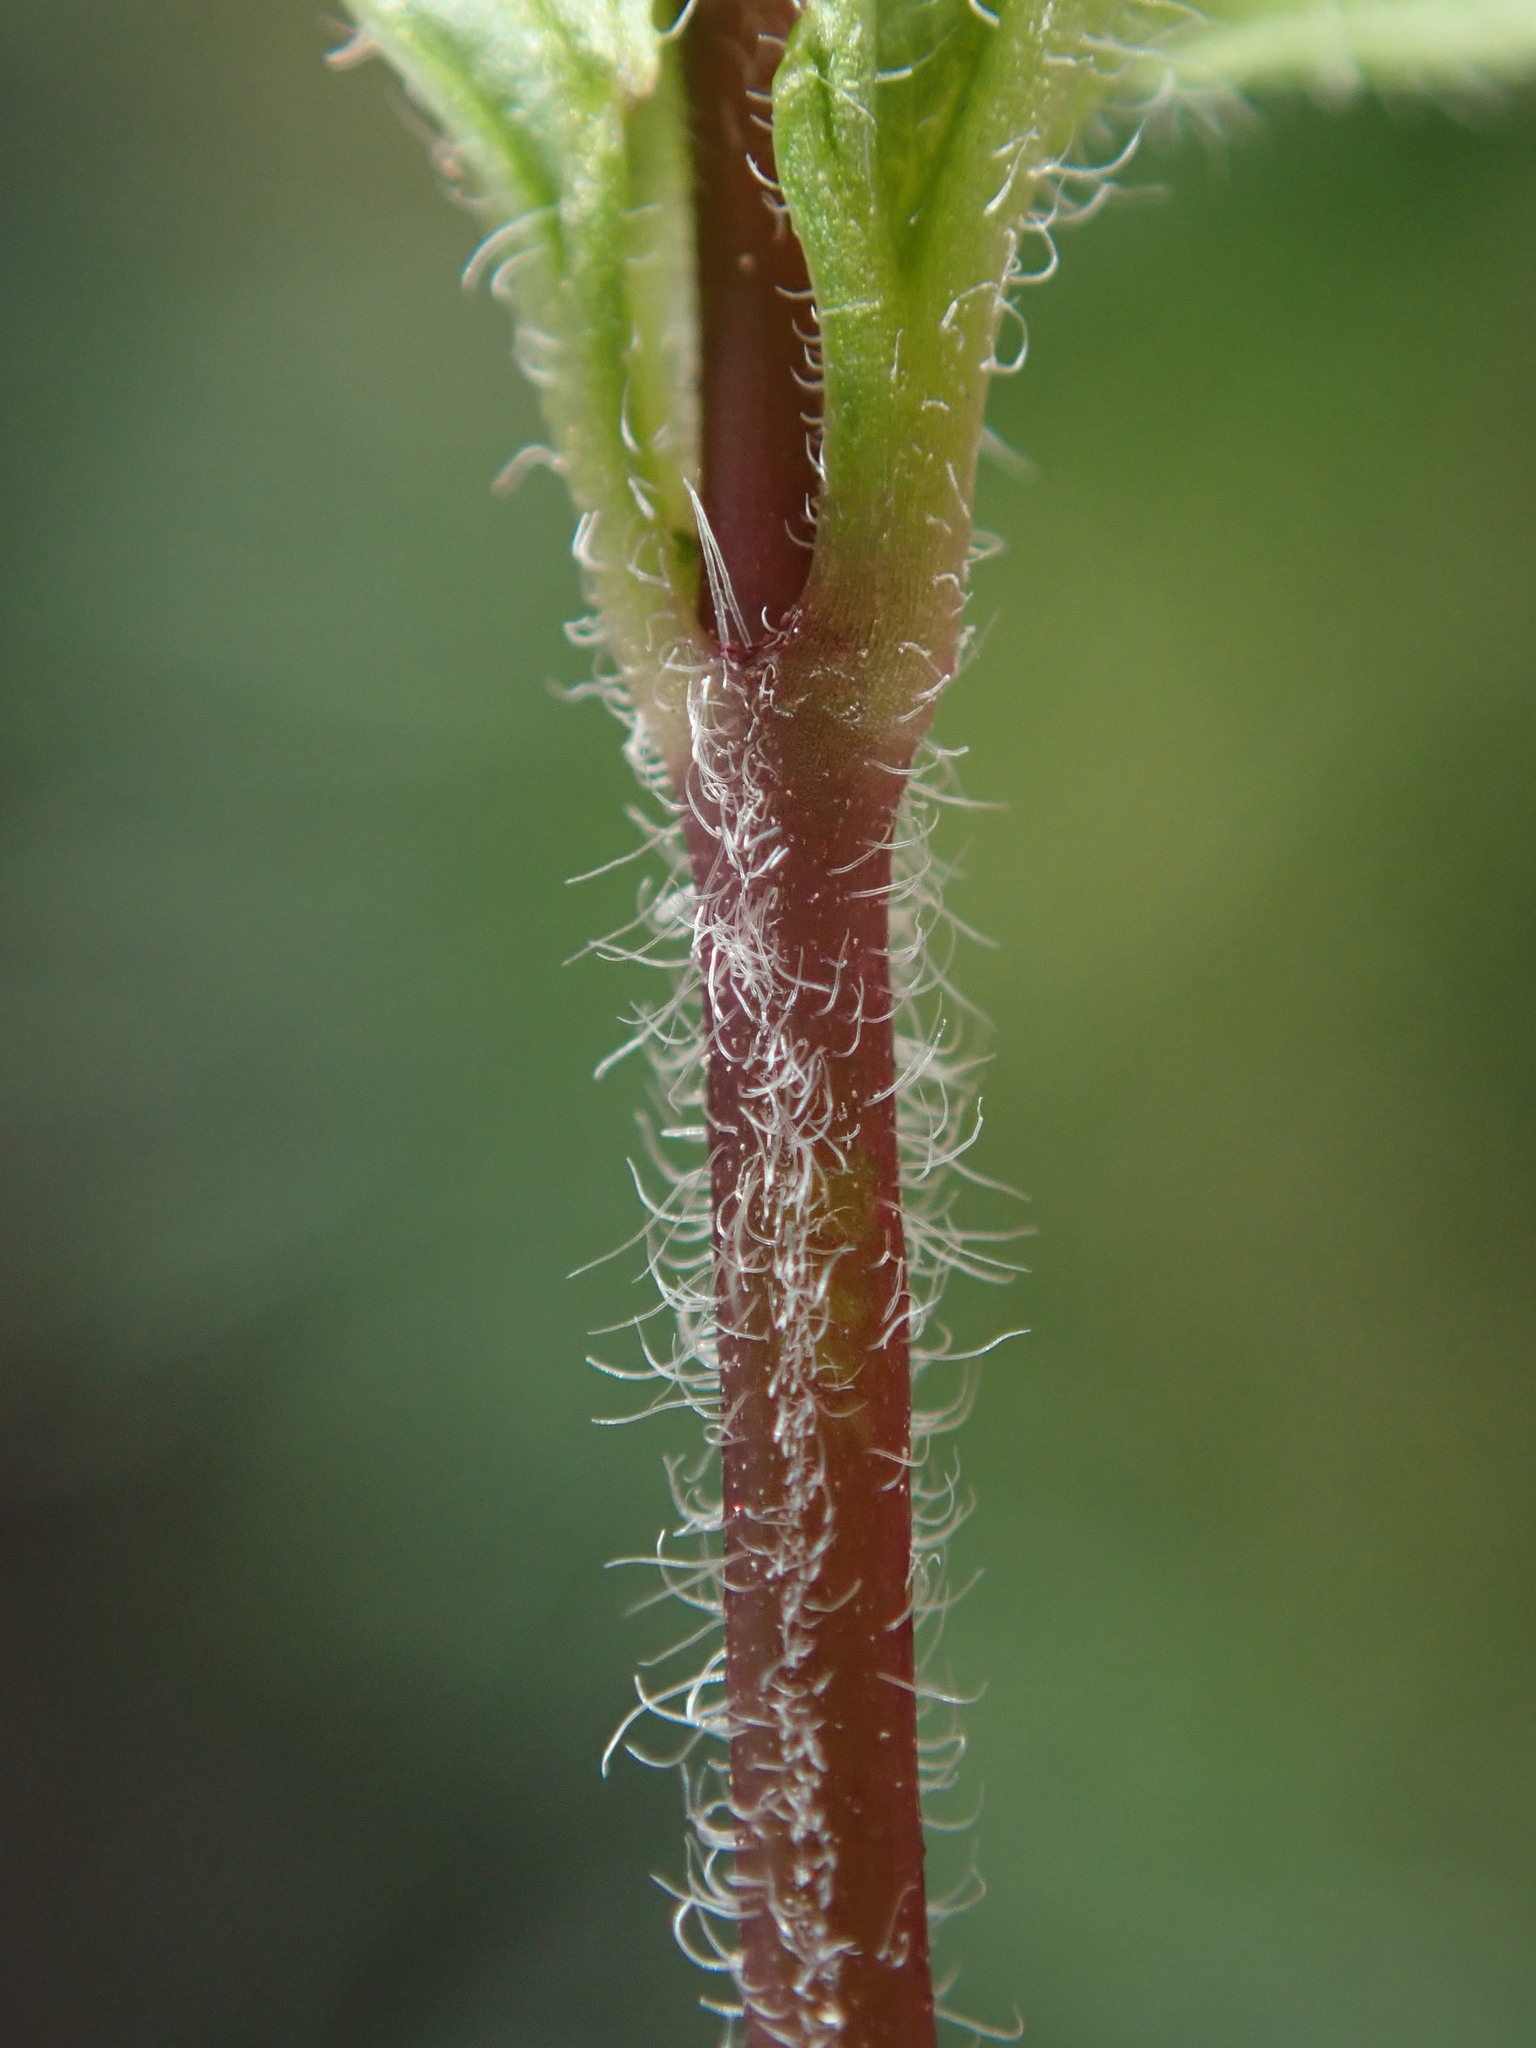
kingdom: Plantae
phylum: Tracheophyta
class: Magnoliopsida
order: Lamiales
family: Plantaginaceae
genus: Veronica
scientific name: Veronica chamaedrys
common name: Germander speedwell
